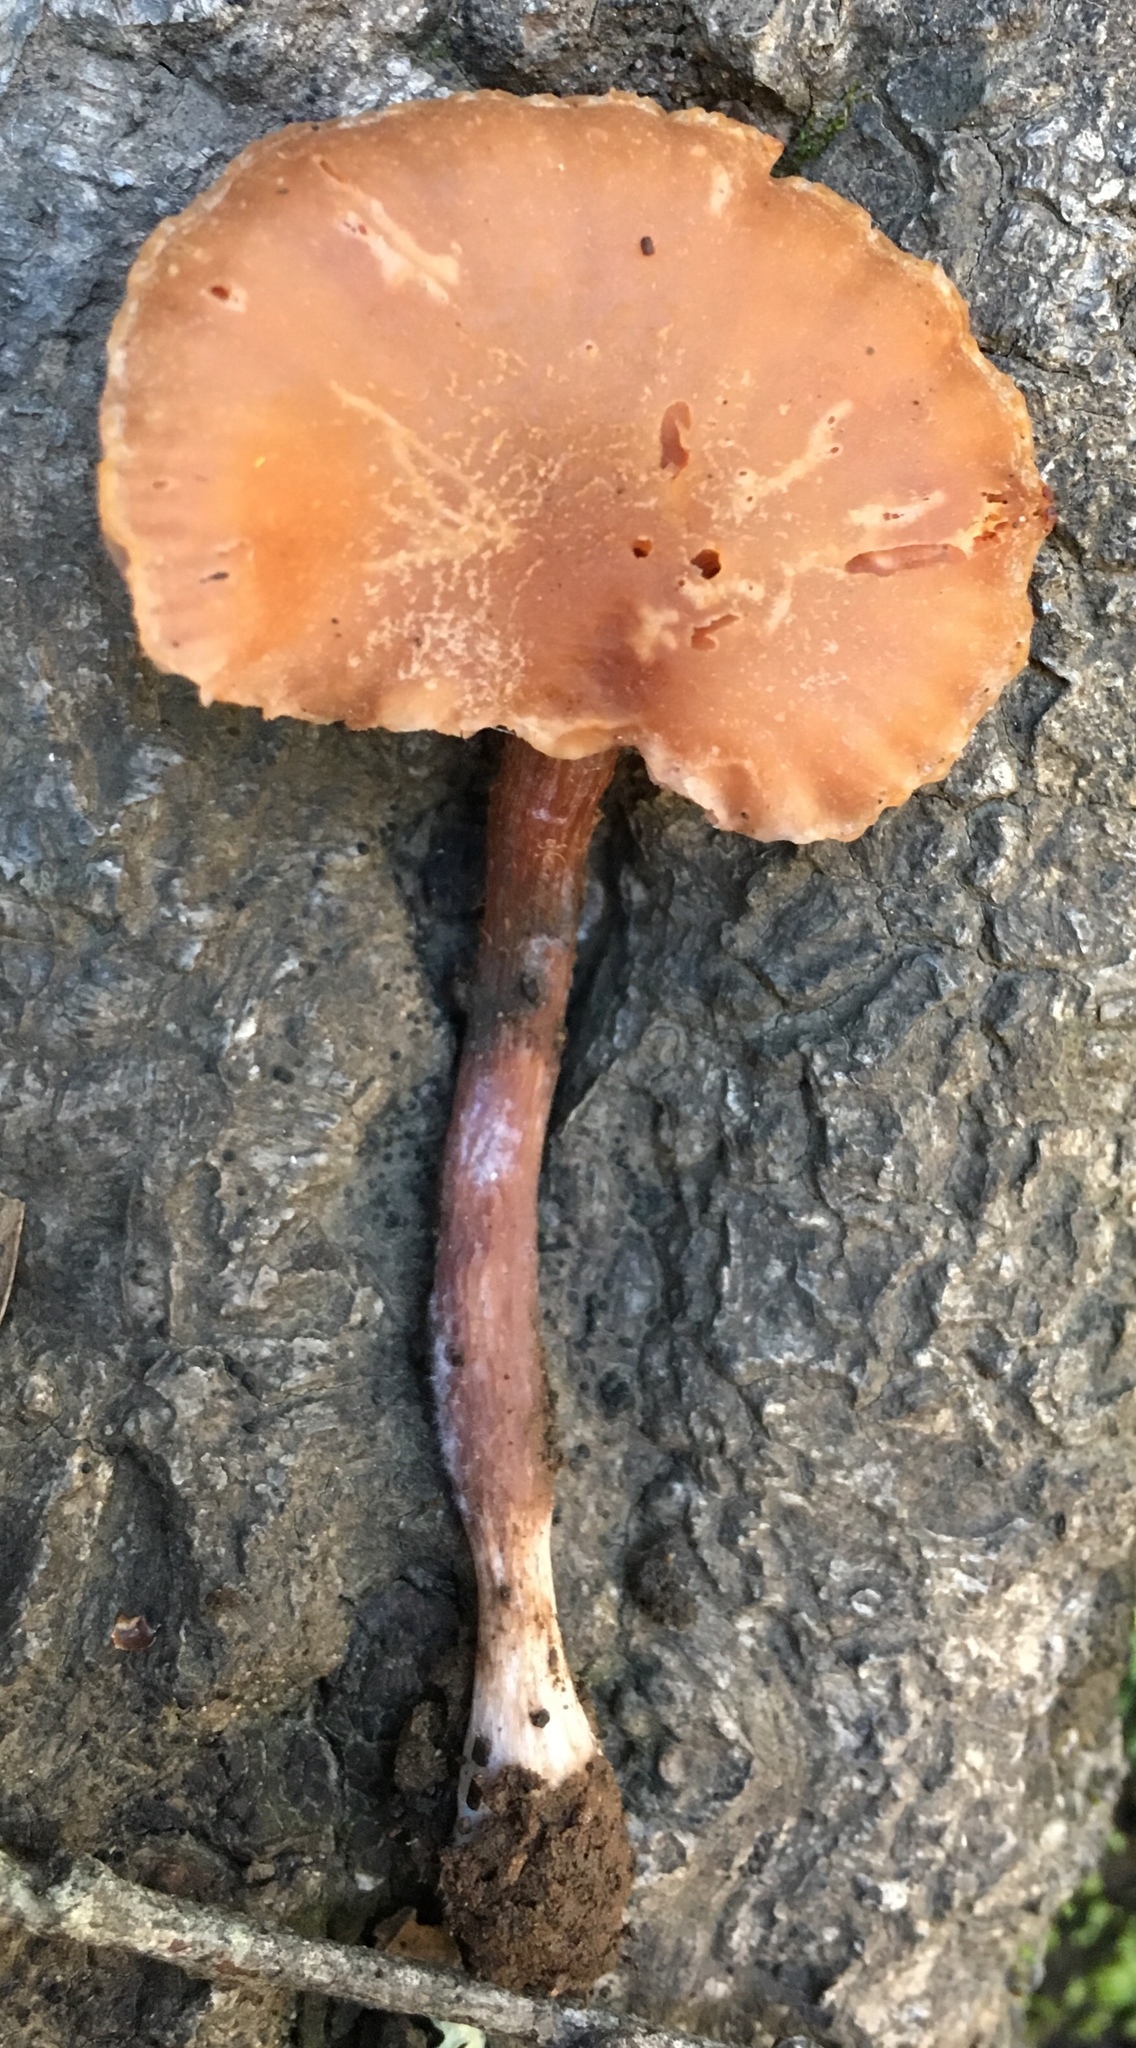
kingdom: Fungi
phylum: Basidiomycota
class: Agaricomycetes
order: Agaricales
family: Hydnangiaceae
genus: Laccaria
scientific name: Laccaria amethysteo-occidentalis
